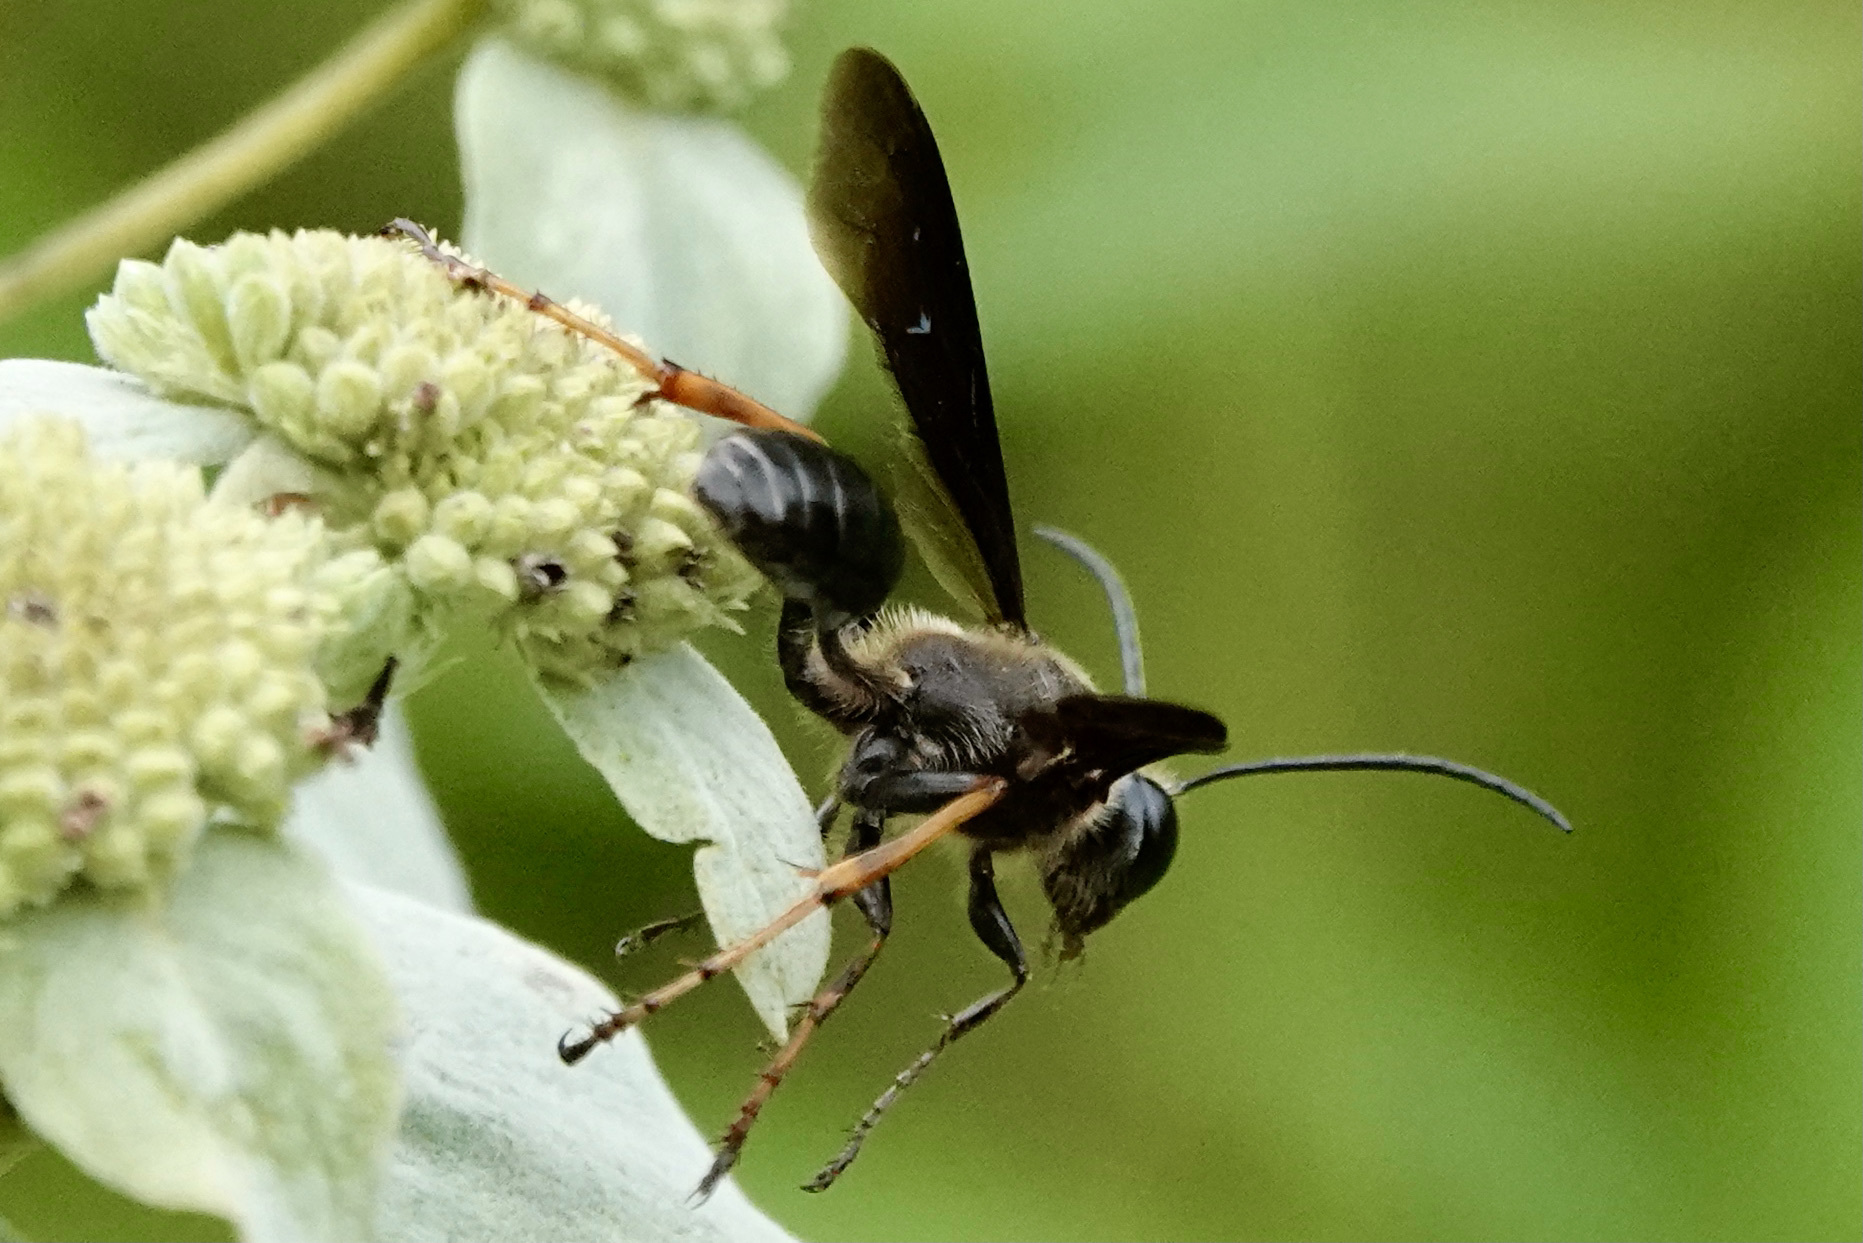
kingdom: Animalia
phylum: Arthropoda
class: Insecta
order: Hymenoptera
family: Sphecidae
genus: Isodontia
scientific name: Isodontia auripes
